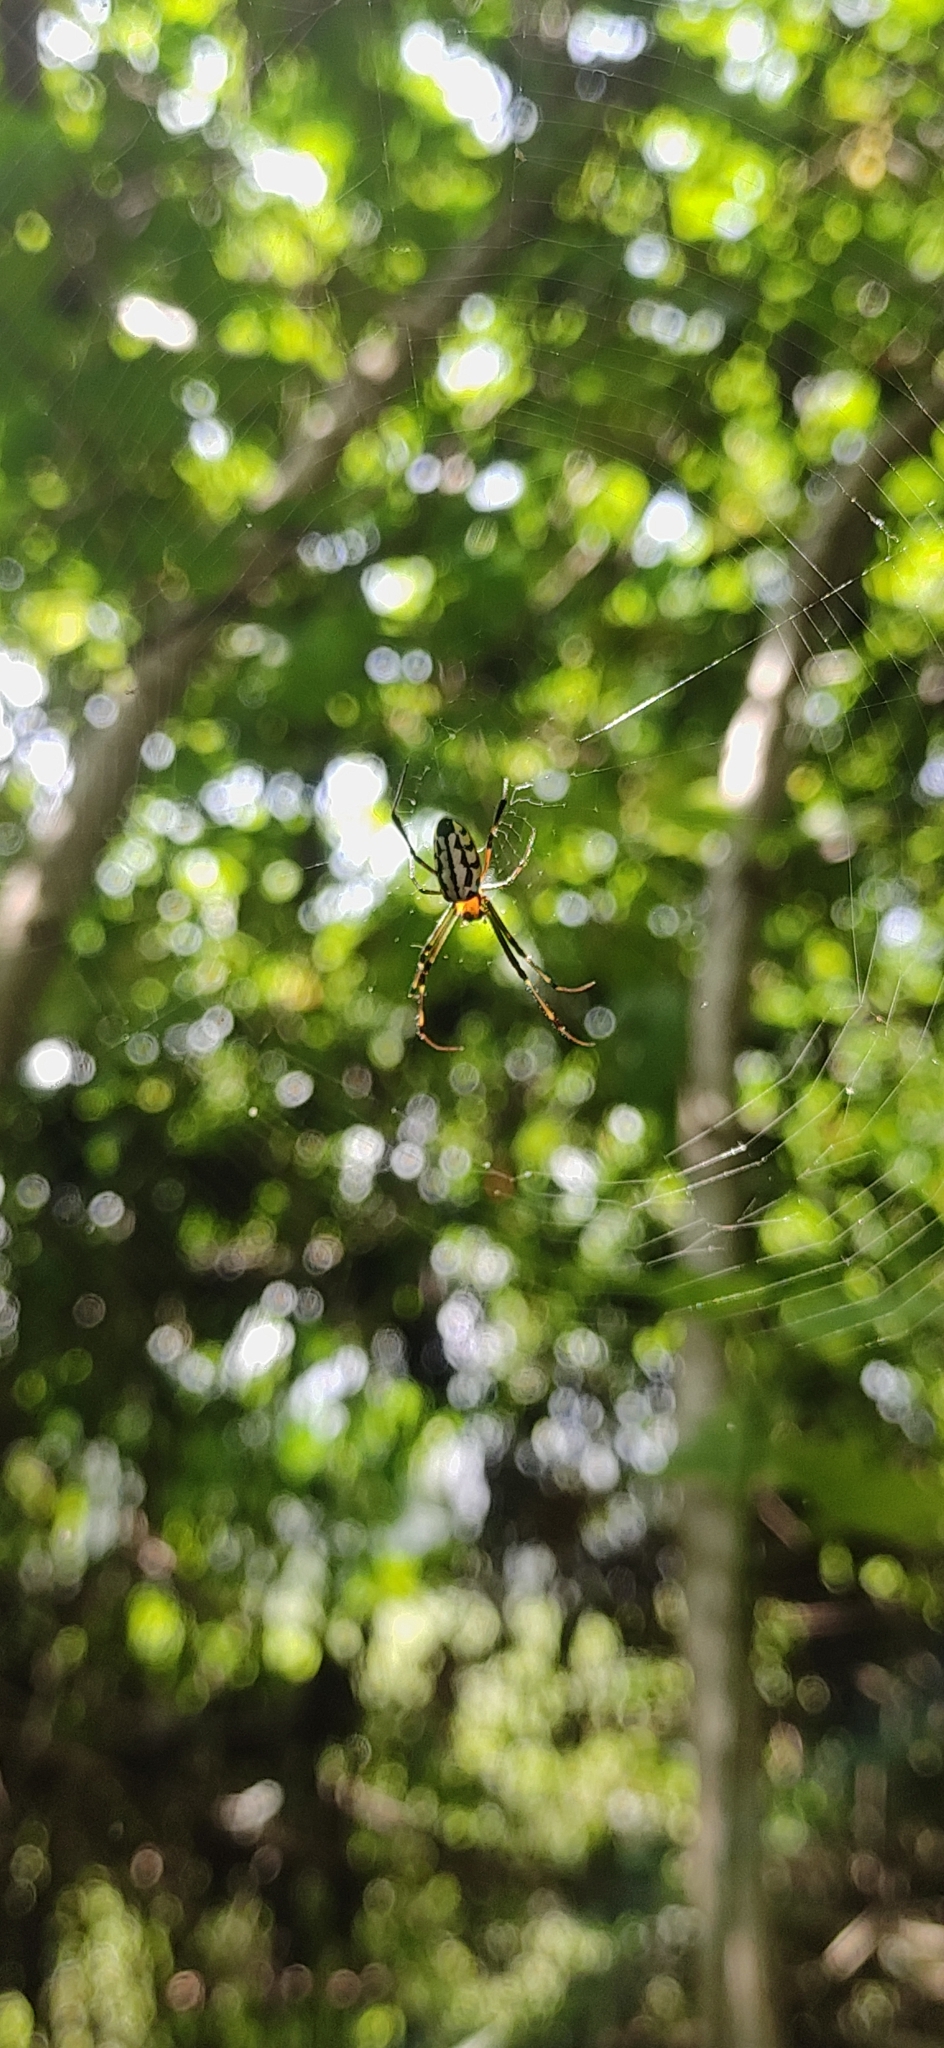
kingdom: Animalia
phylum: Arthropoda
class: Arachnida
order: Araneae
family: Tetragnathidae
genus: Leucauge
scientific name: Leucauge tessellata
